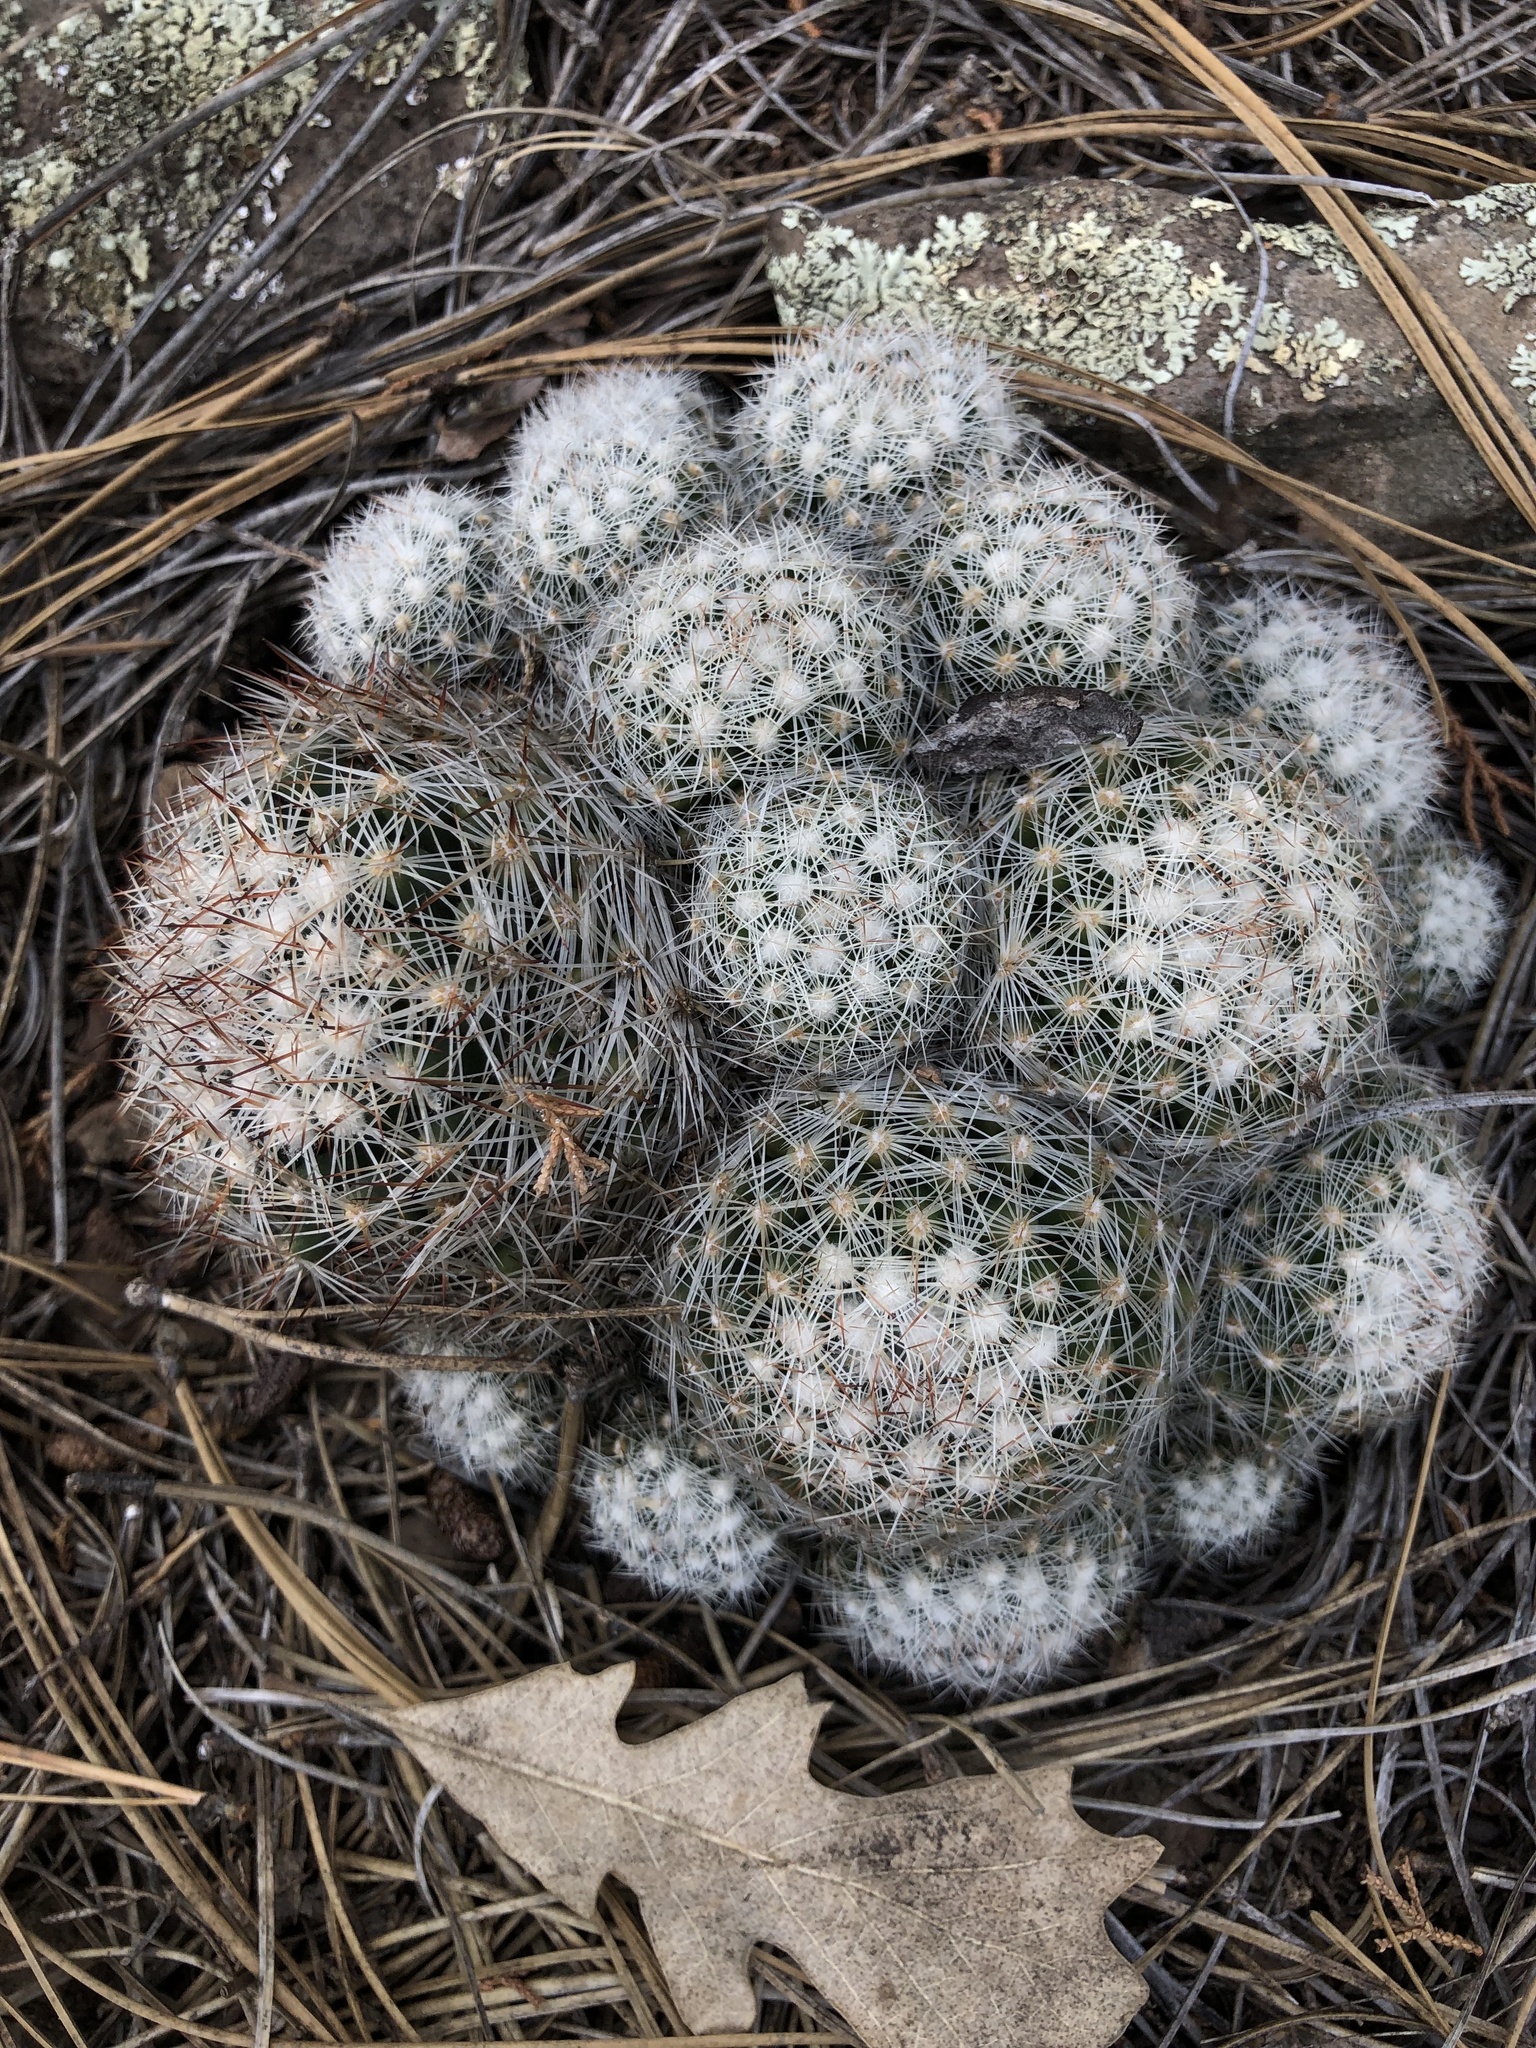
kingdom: Plantae
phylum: Tracheophyta
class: Magnoliopsida
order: Caryophyllales
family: Cactaceae
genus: Pelecyphora
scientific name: Pelecyphora vivipara
